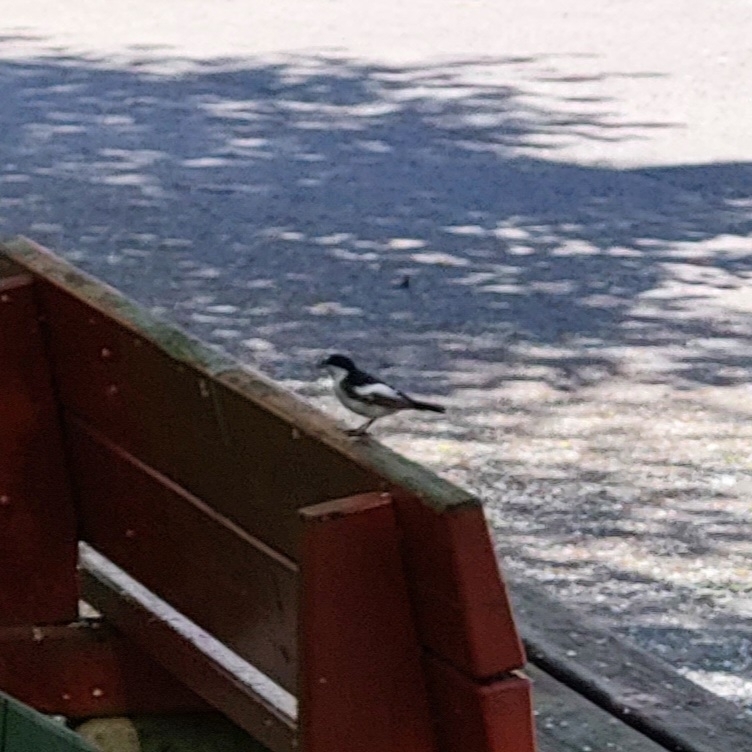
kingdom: Animalia
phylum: Chordata
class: Aves
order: Passeriformes
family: Muscicapidae
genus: Ficedula
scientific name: Ficedula hypoleuca
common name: European pied flycatcher
